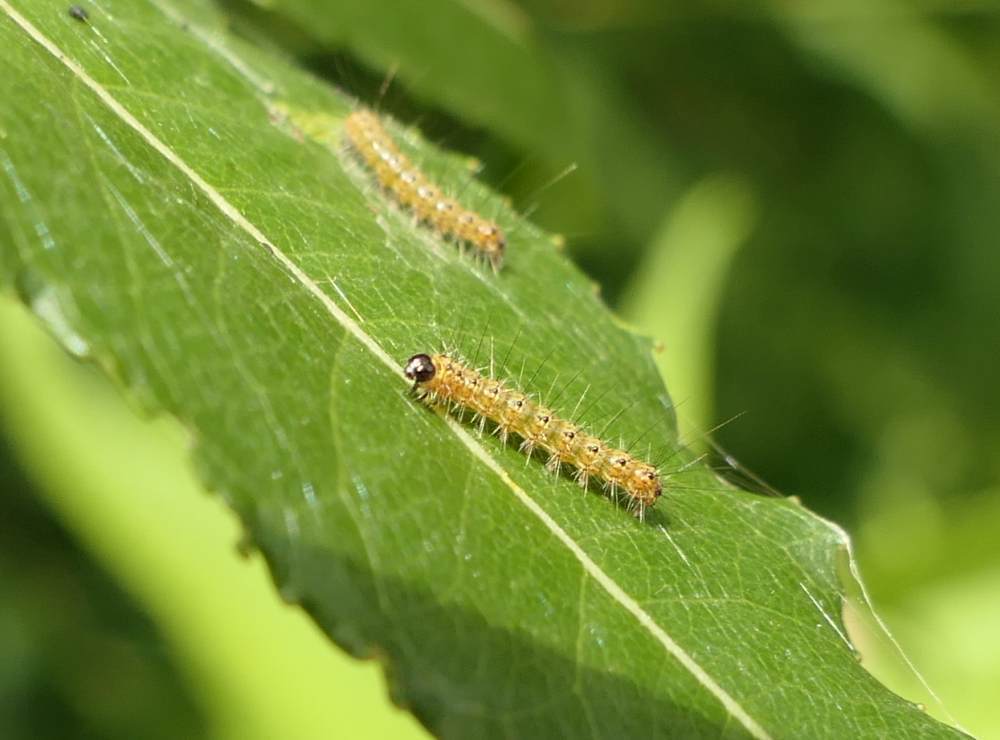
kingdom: Animalia
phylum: Arthropoda
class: Insecta
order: Lepidoptera
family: Erebidae
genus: Hyphantria
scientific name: Hyphantria cunea
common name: American white moth
